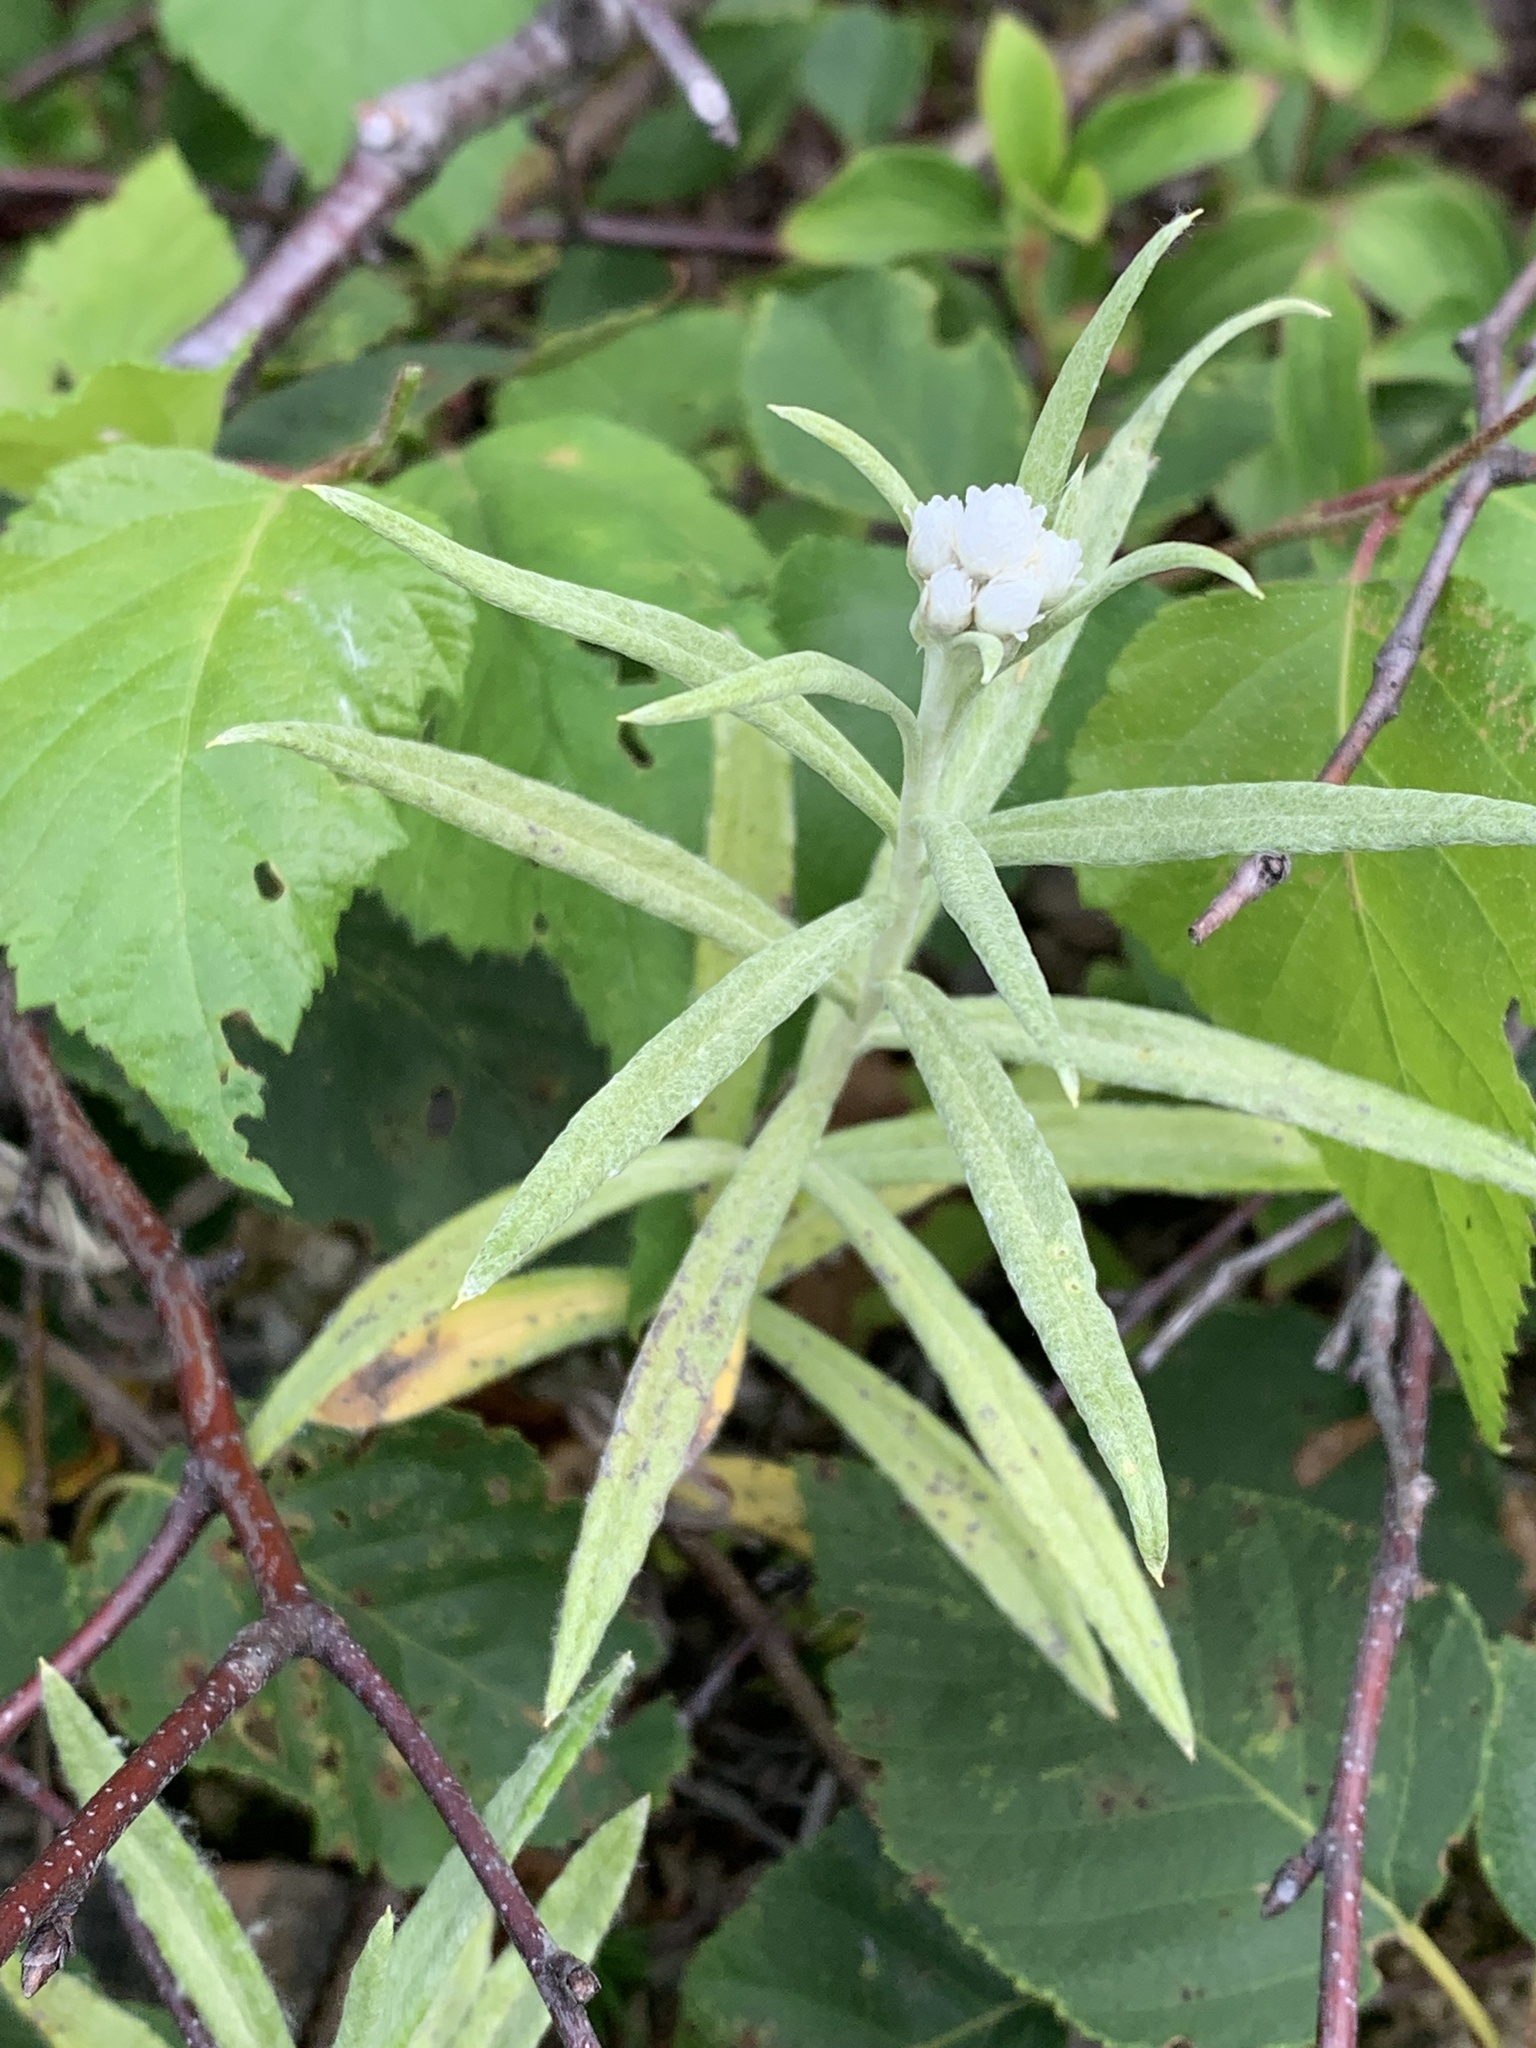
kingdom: Plantae
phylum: Tracheophyta
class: Magnoliopsida
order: Asterales
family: Asteraceae
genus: Anaphalis
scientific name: Anaphalis margaritacea
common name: Pearly everlasting
